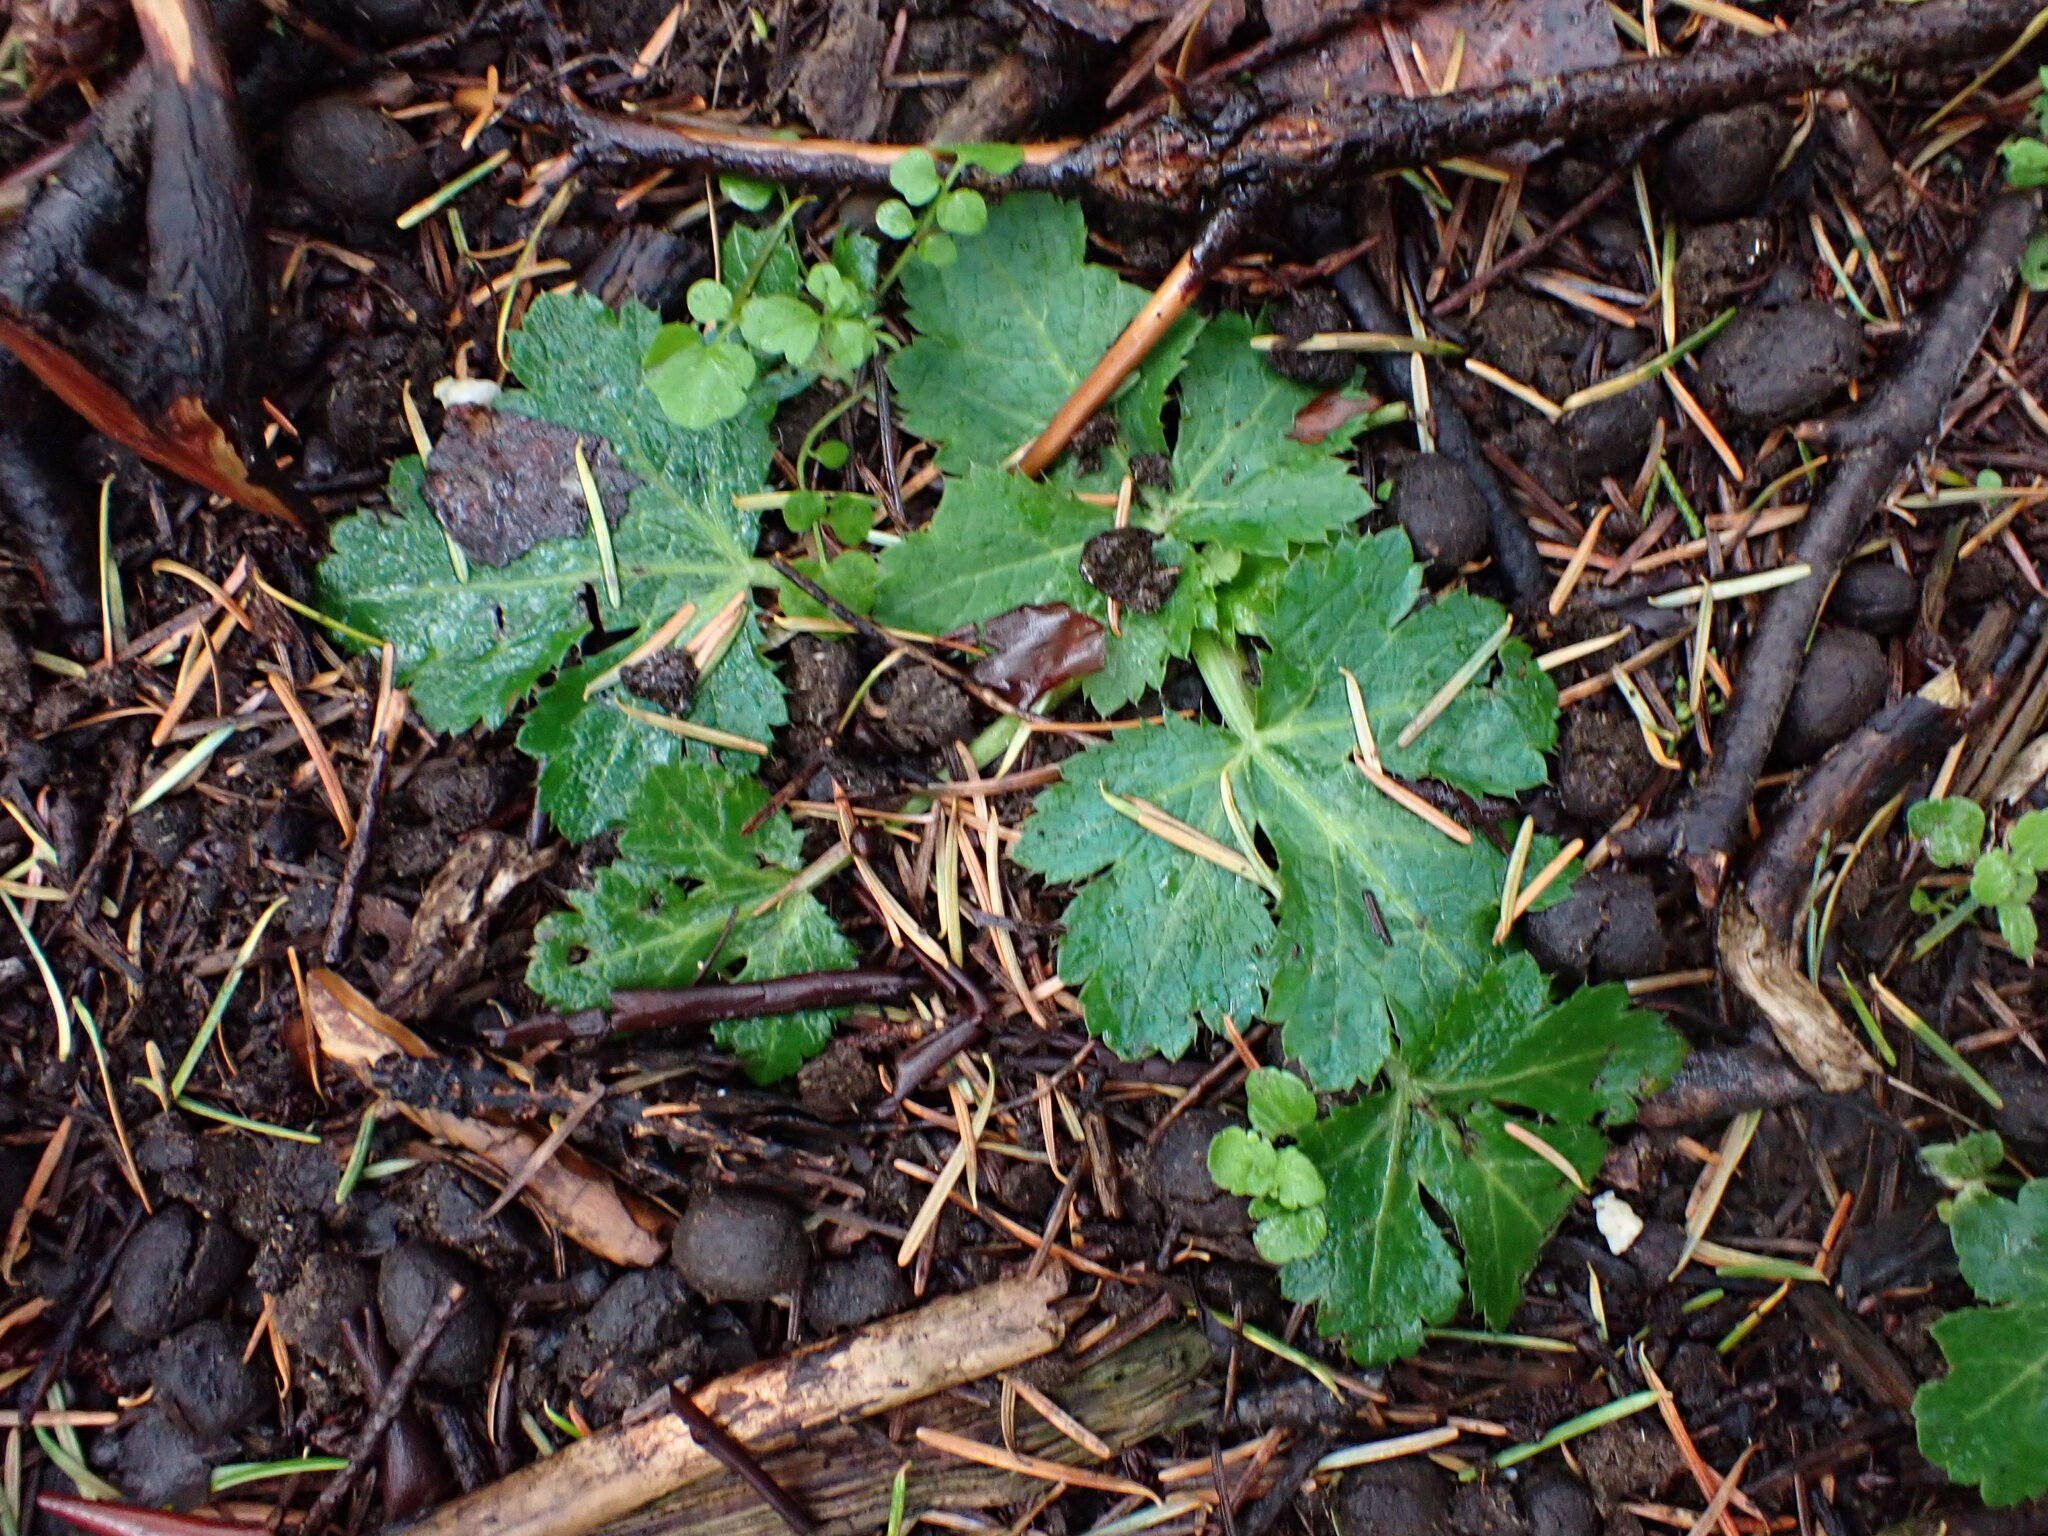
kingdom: Plantae
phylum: Tracheophyta
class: Magnoliopsida
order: Apiales
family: Apiaceae
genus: Sanicula
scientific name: Sanicula crassicaulis
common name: Western snakeroot
